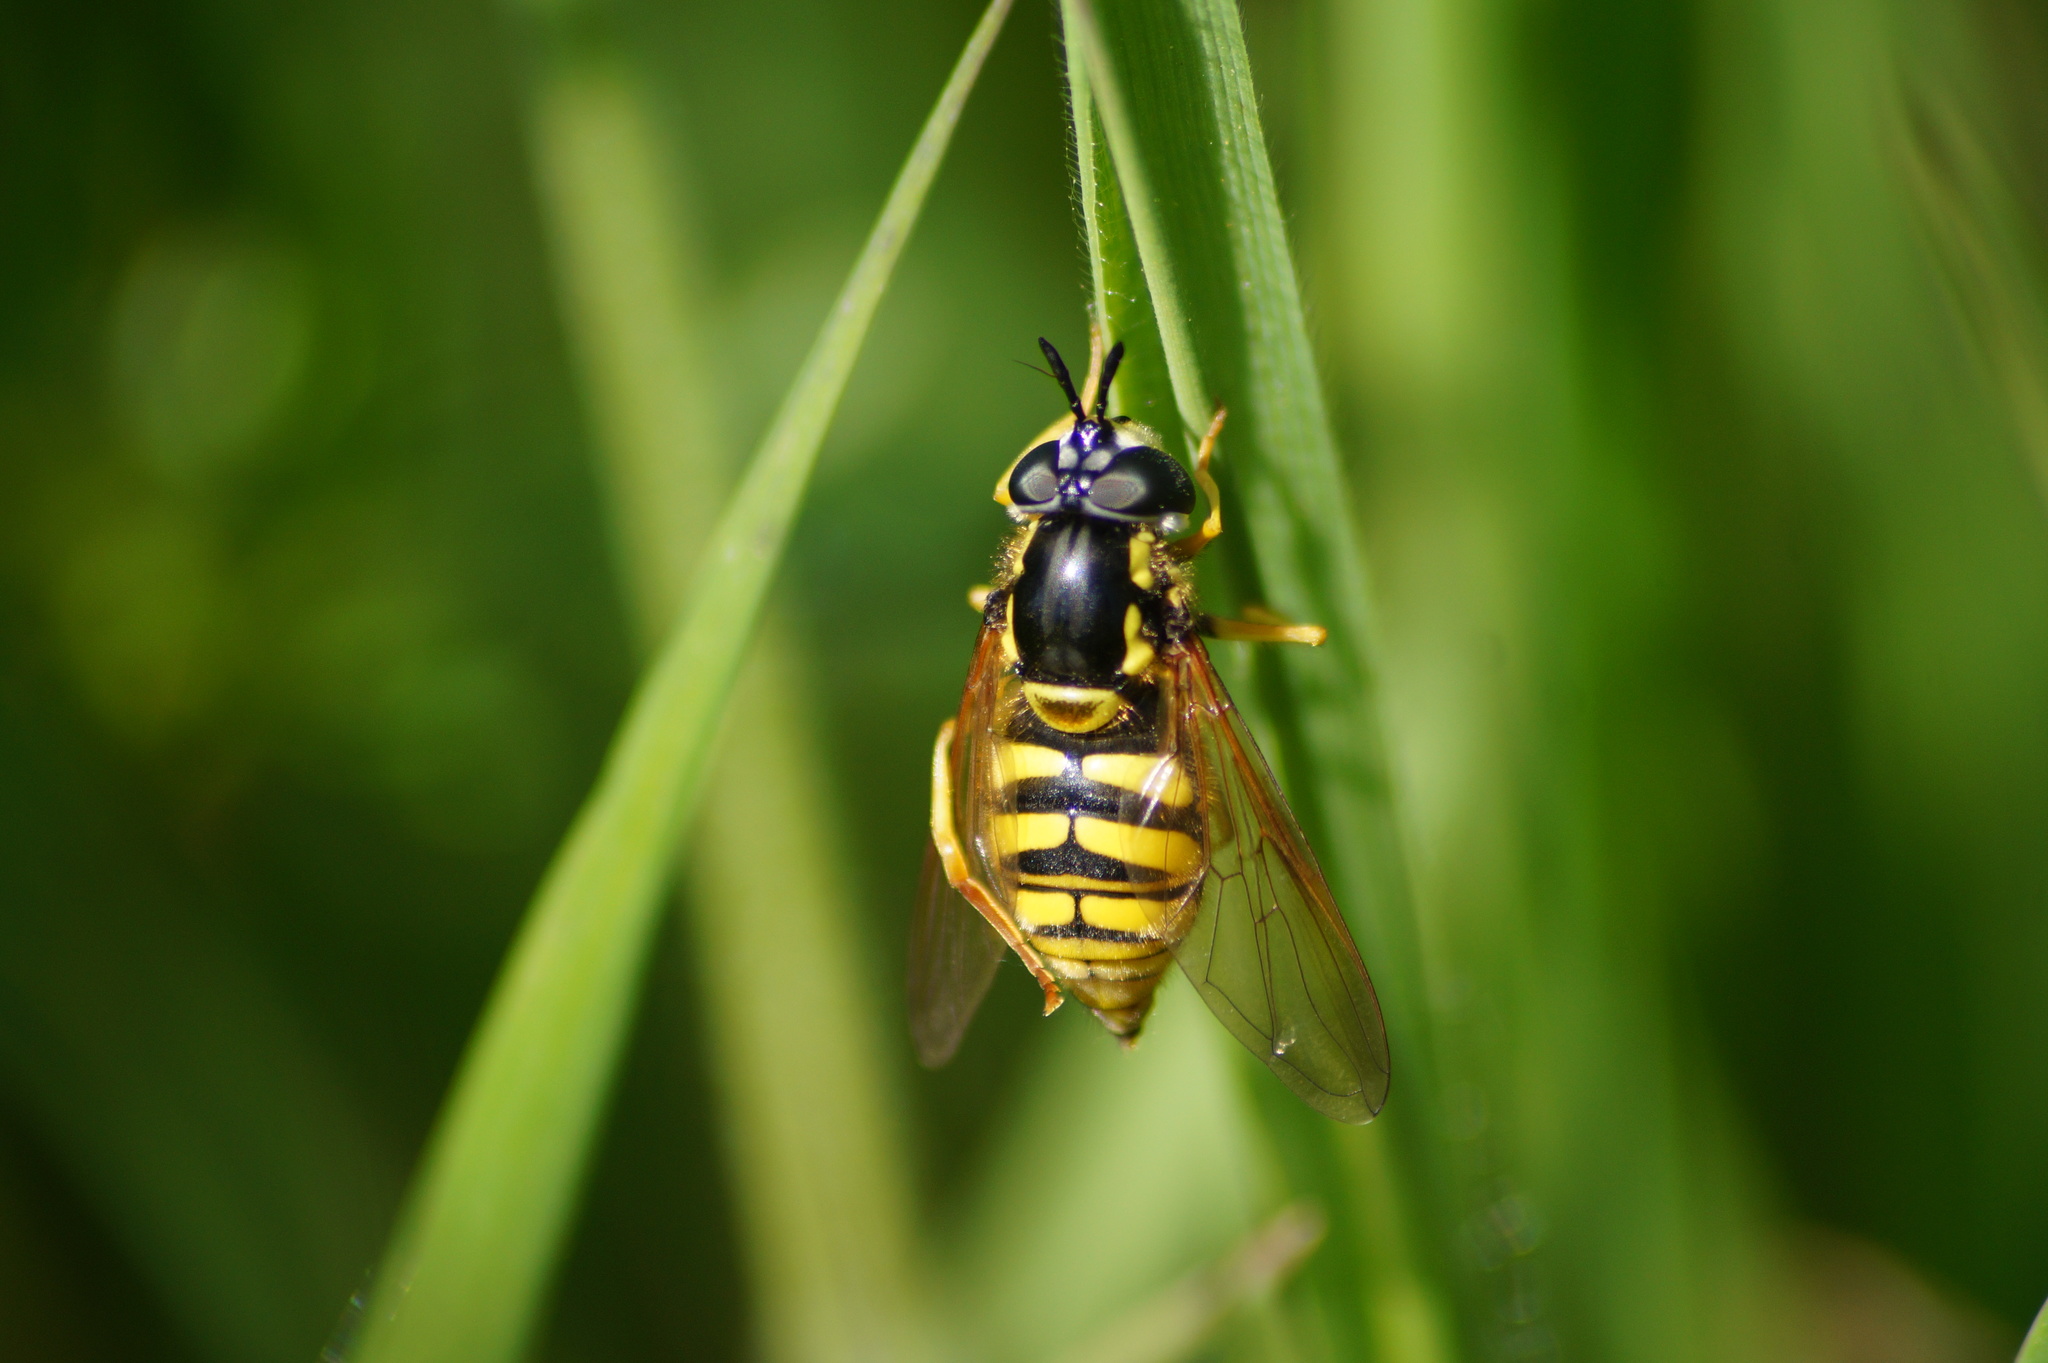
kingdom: Animalia
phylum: Arthropoda
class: Insecta
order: Diptera
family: Syrphidae
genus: Chrysotoxum
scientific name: Chrysotoxum cautum
